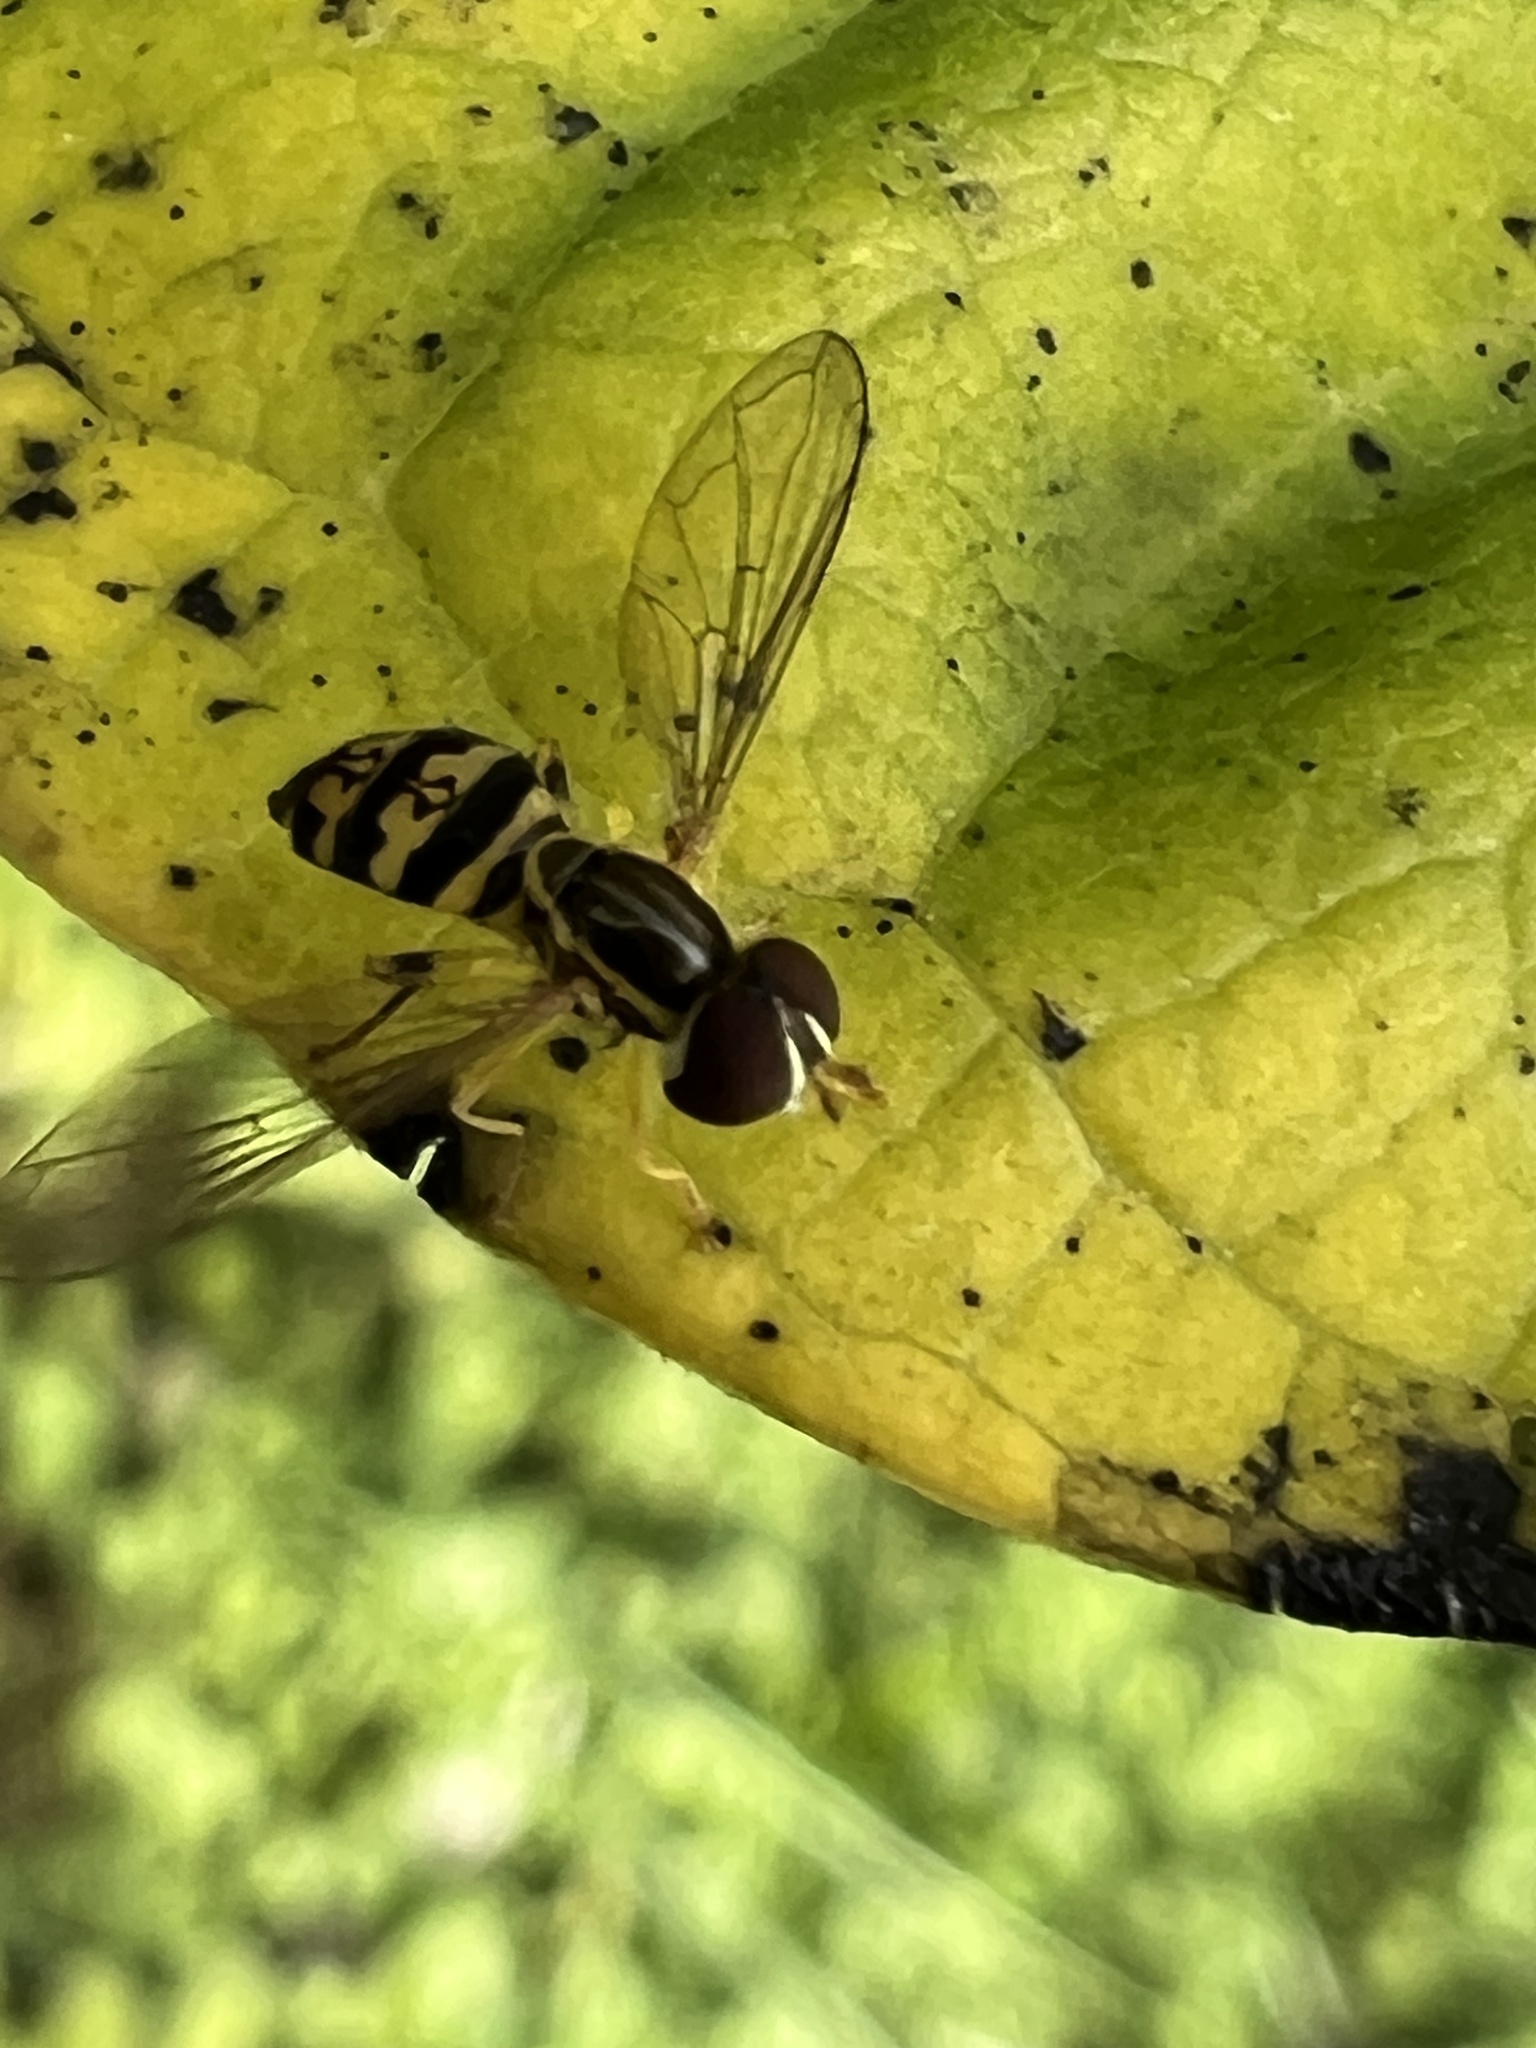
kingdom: Animalia
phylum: Arthropoda
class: Insecta
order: Diptera
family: Syrphidae
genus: Toxomerus
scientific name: Toxomerus geminatus
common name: Eastern calligrapher
